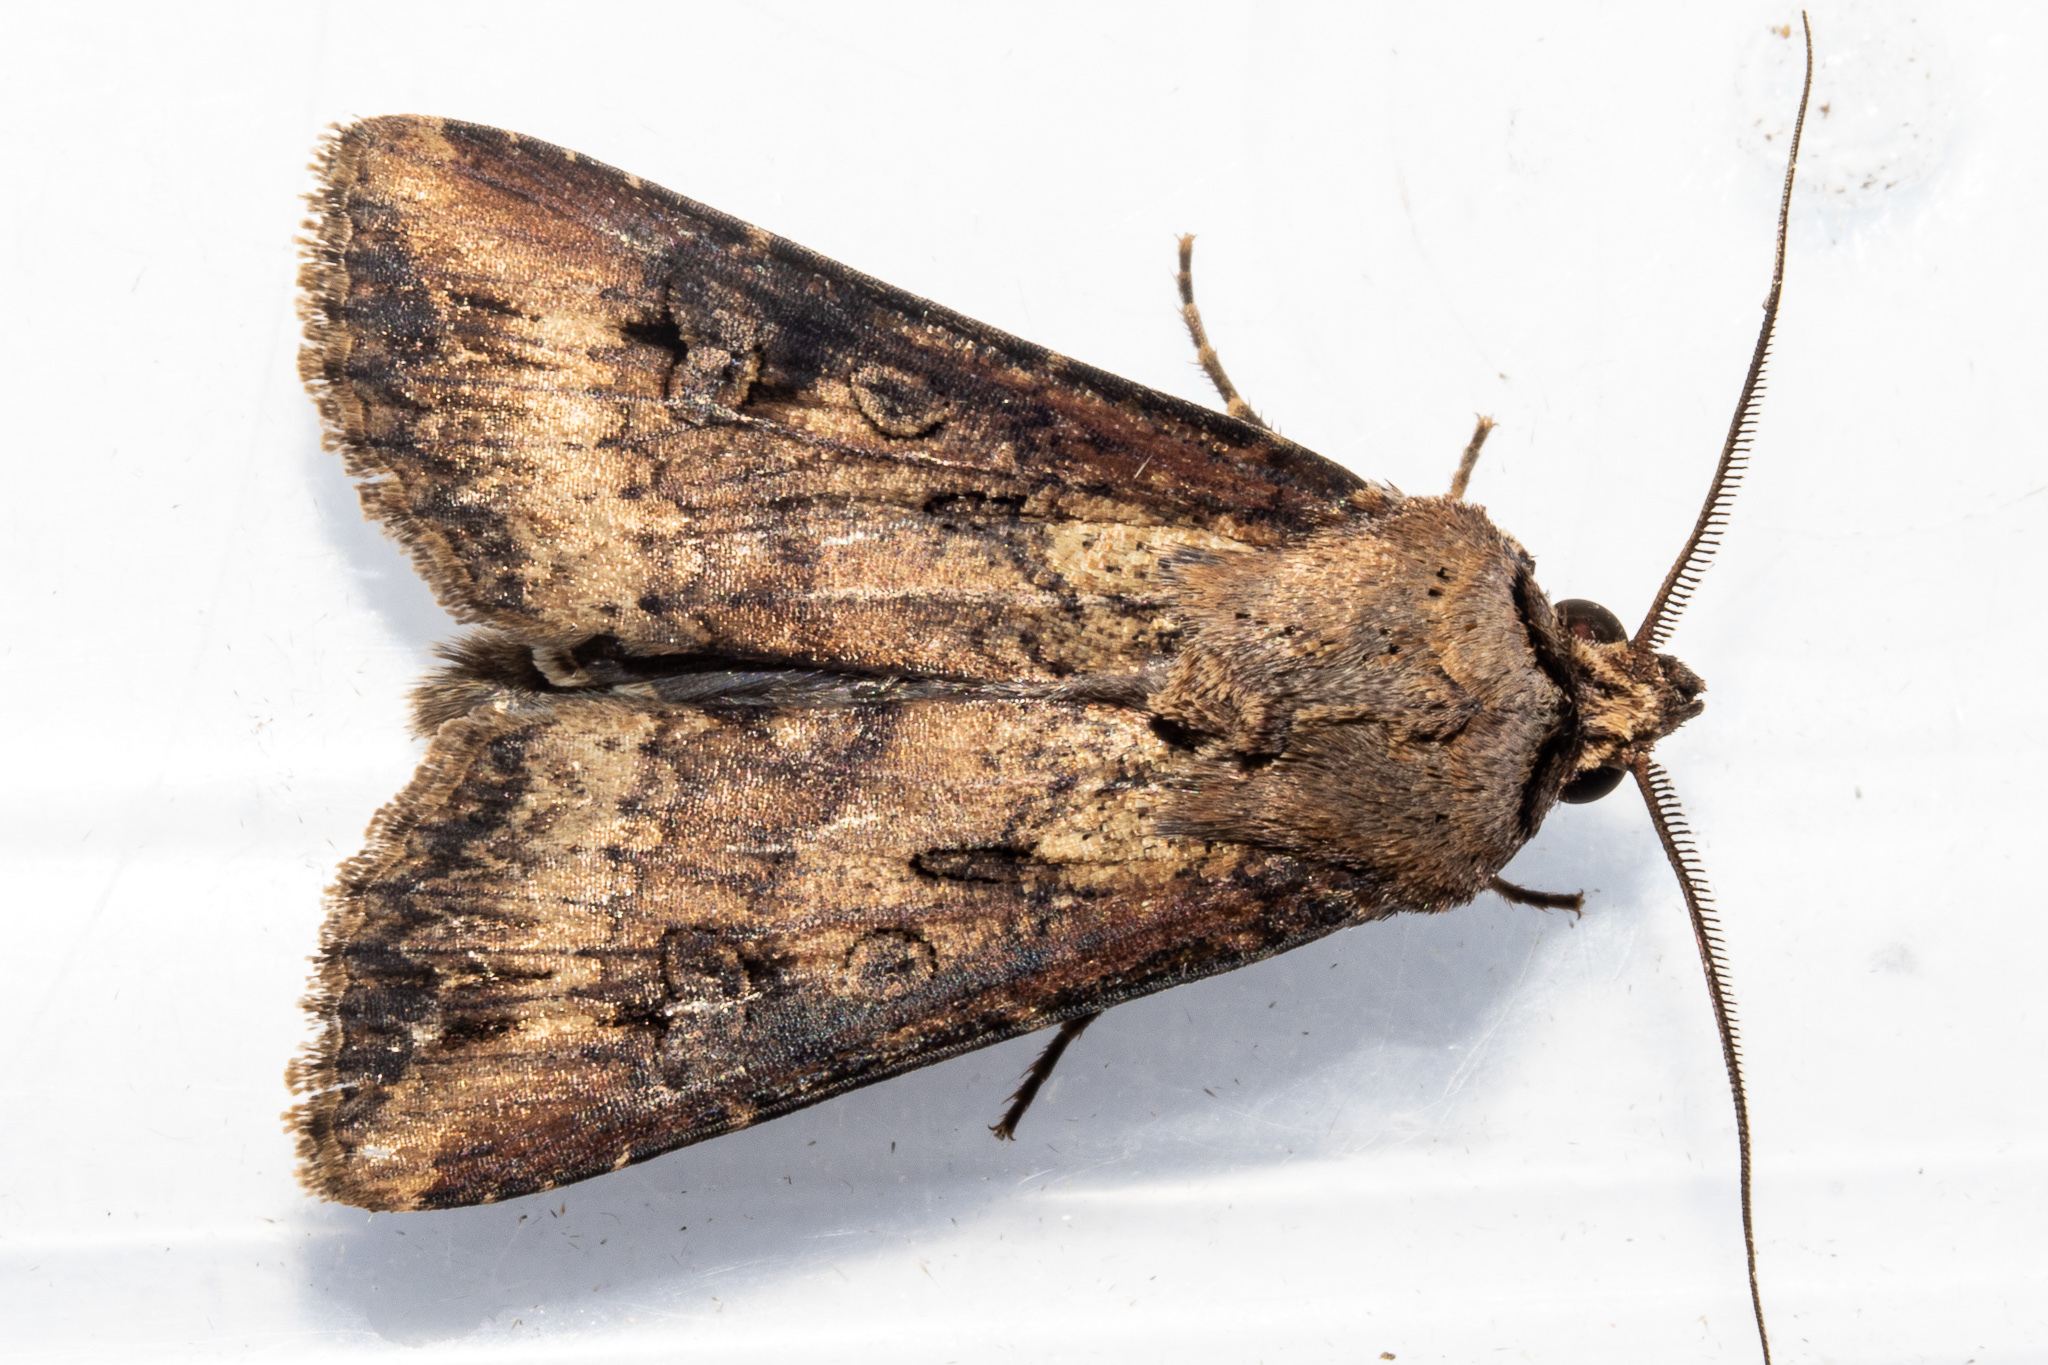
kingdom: Animalia
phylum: Arthropoda
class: Insecta
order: Lepidoptera
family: Noctuidae
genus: Agrotis
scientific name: Agrotis ipsilon
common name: Dark sword-grass
